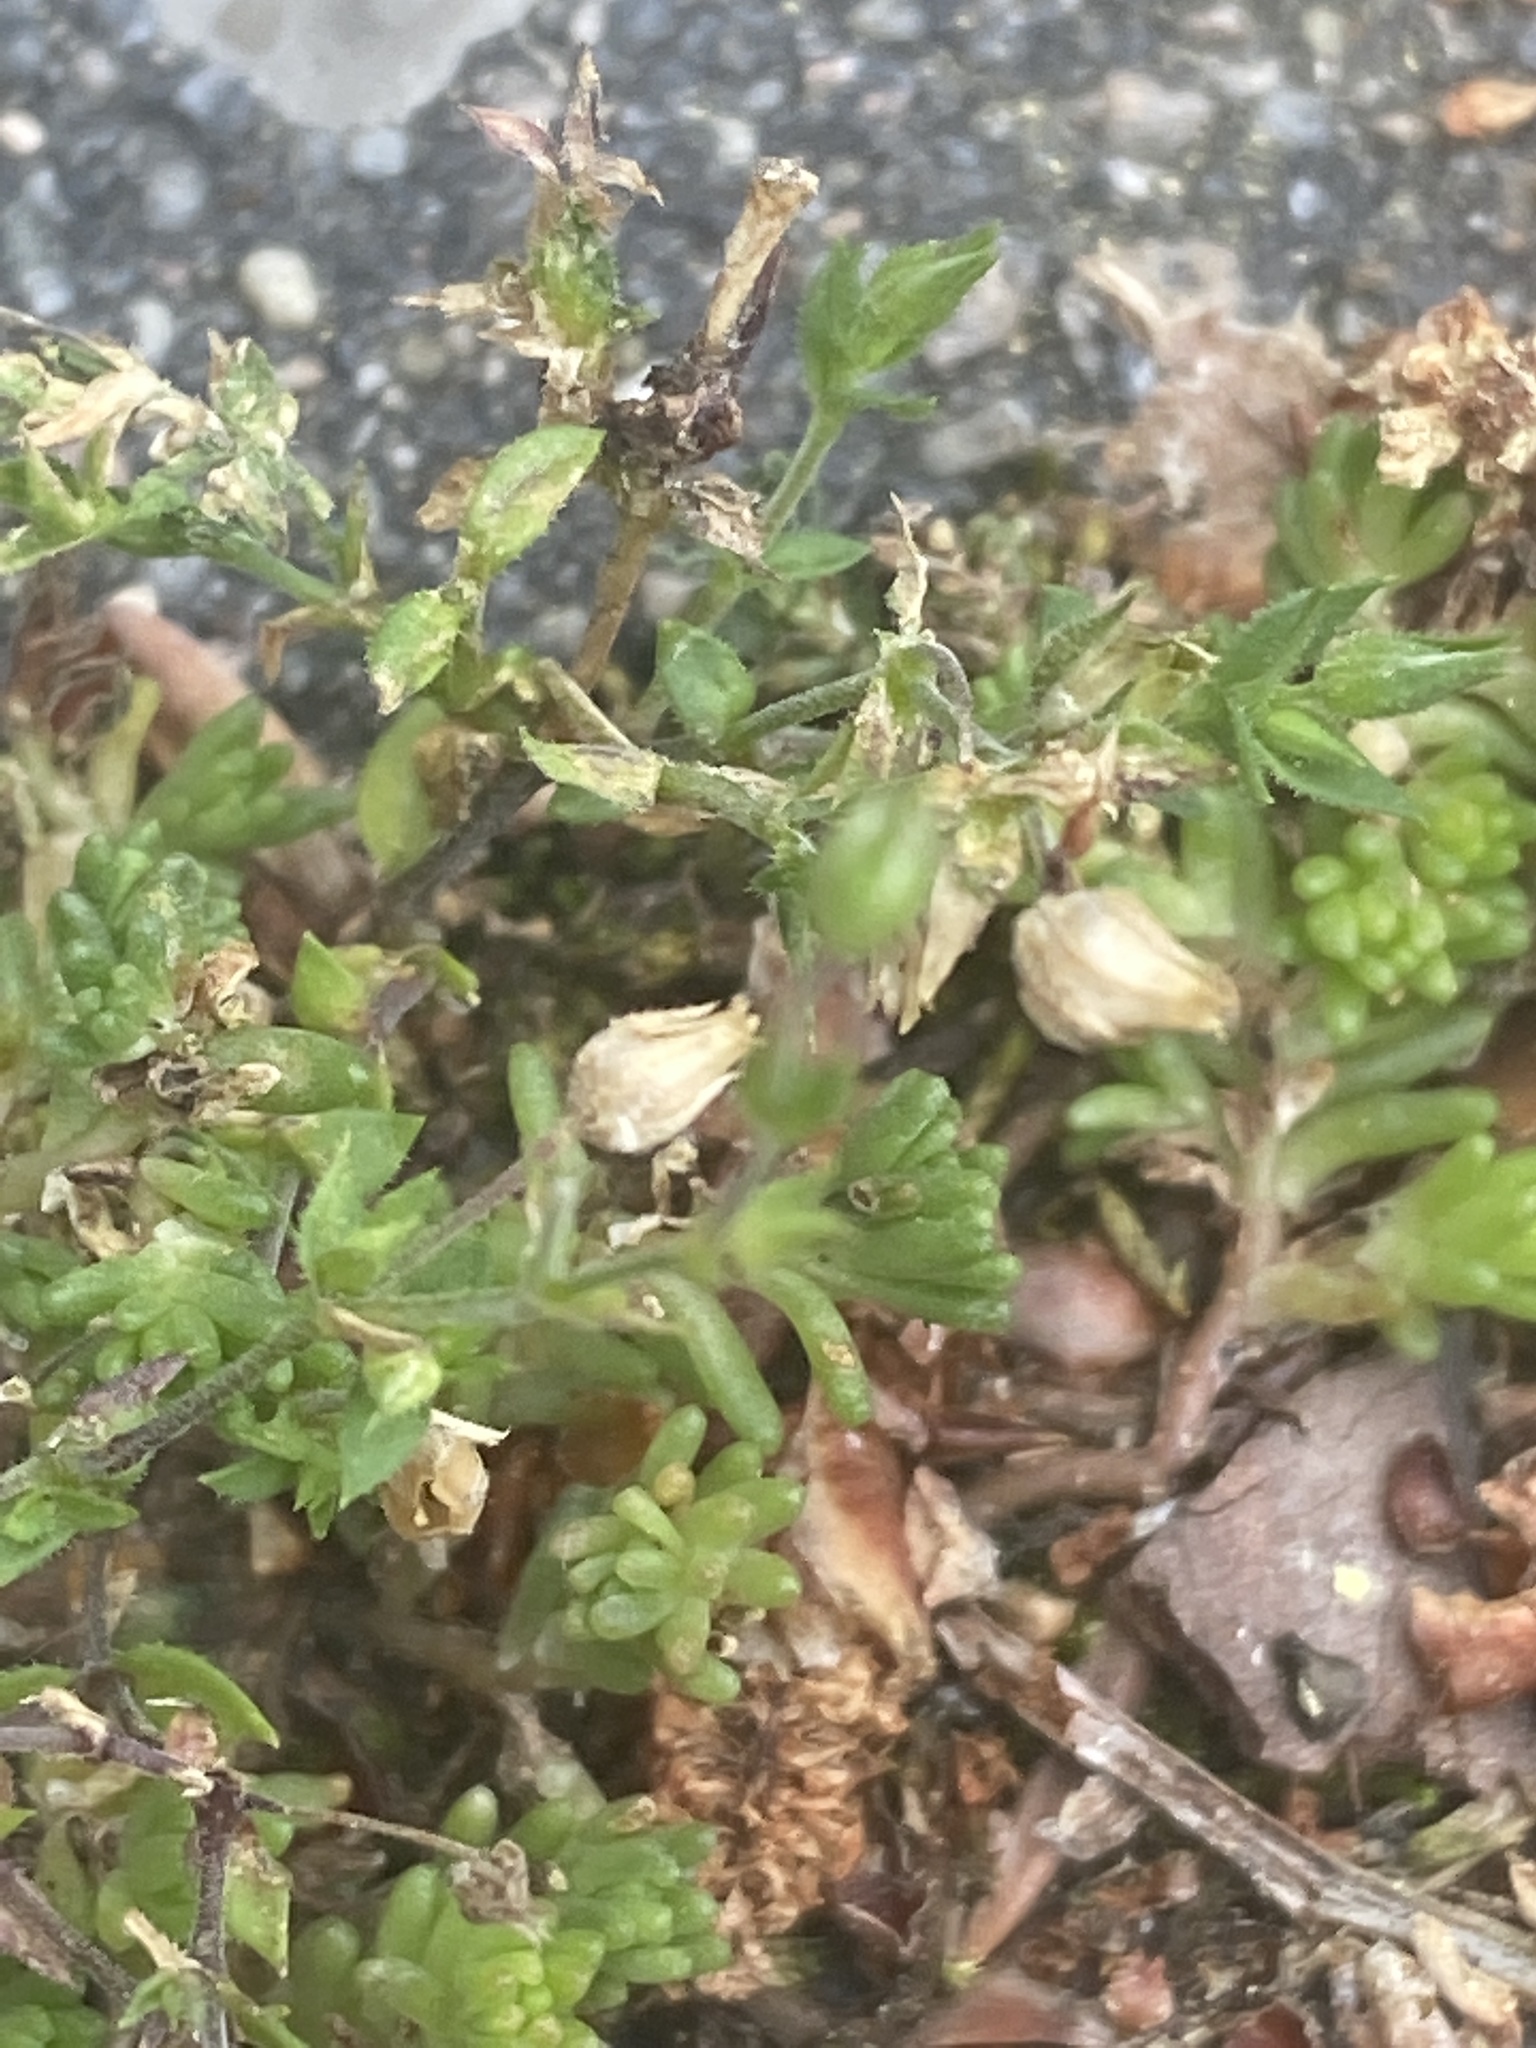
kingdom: Plantae
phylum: Tracheophyta
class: Magnoliopsida
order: Caryophyllales
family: Caryophyllaceae
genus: Arenaria
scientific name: Arenaria serpyllifolia
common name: Thyme-leaved sandwort
